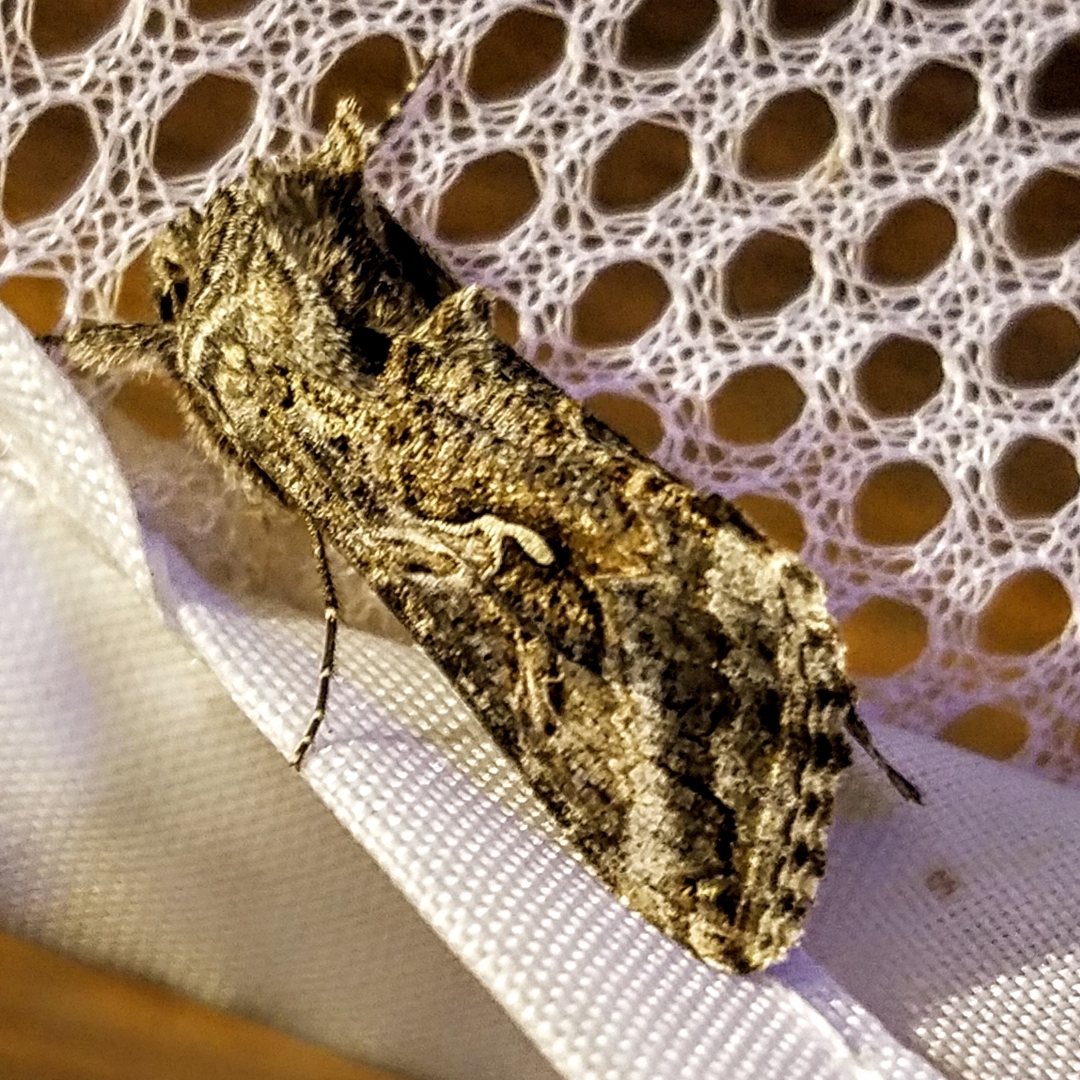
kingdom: Animalia
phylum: Arthropoda
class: Insecta
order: Lepidoptera
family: Noctuidae
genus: Autographa
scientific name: Autographa californica
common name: Alfalfa looper
